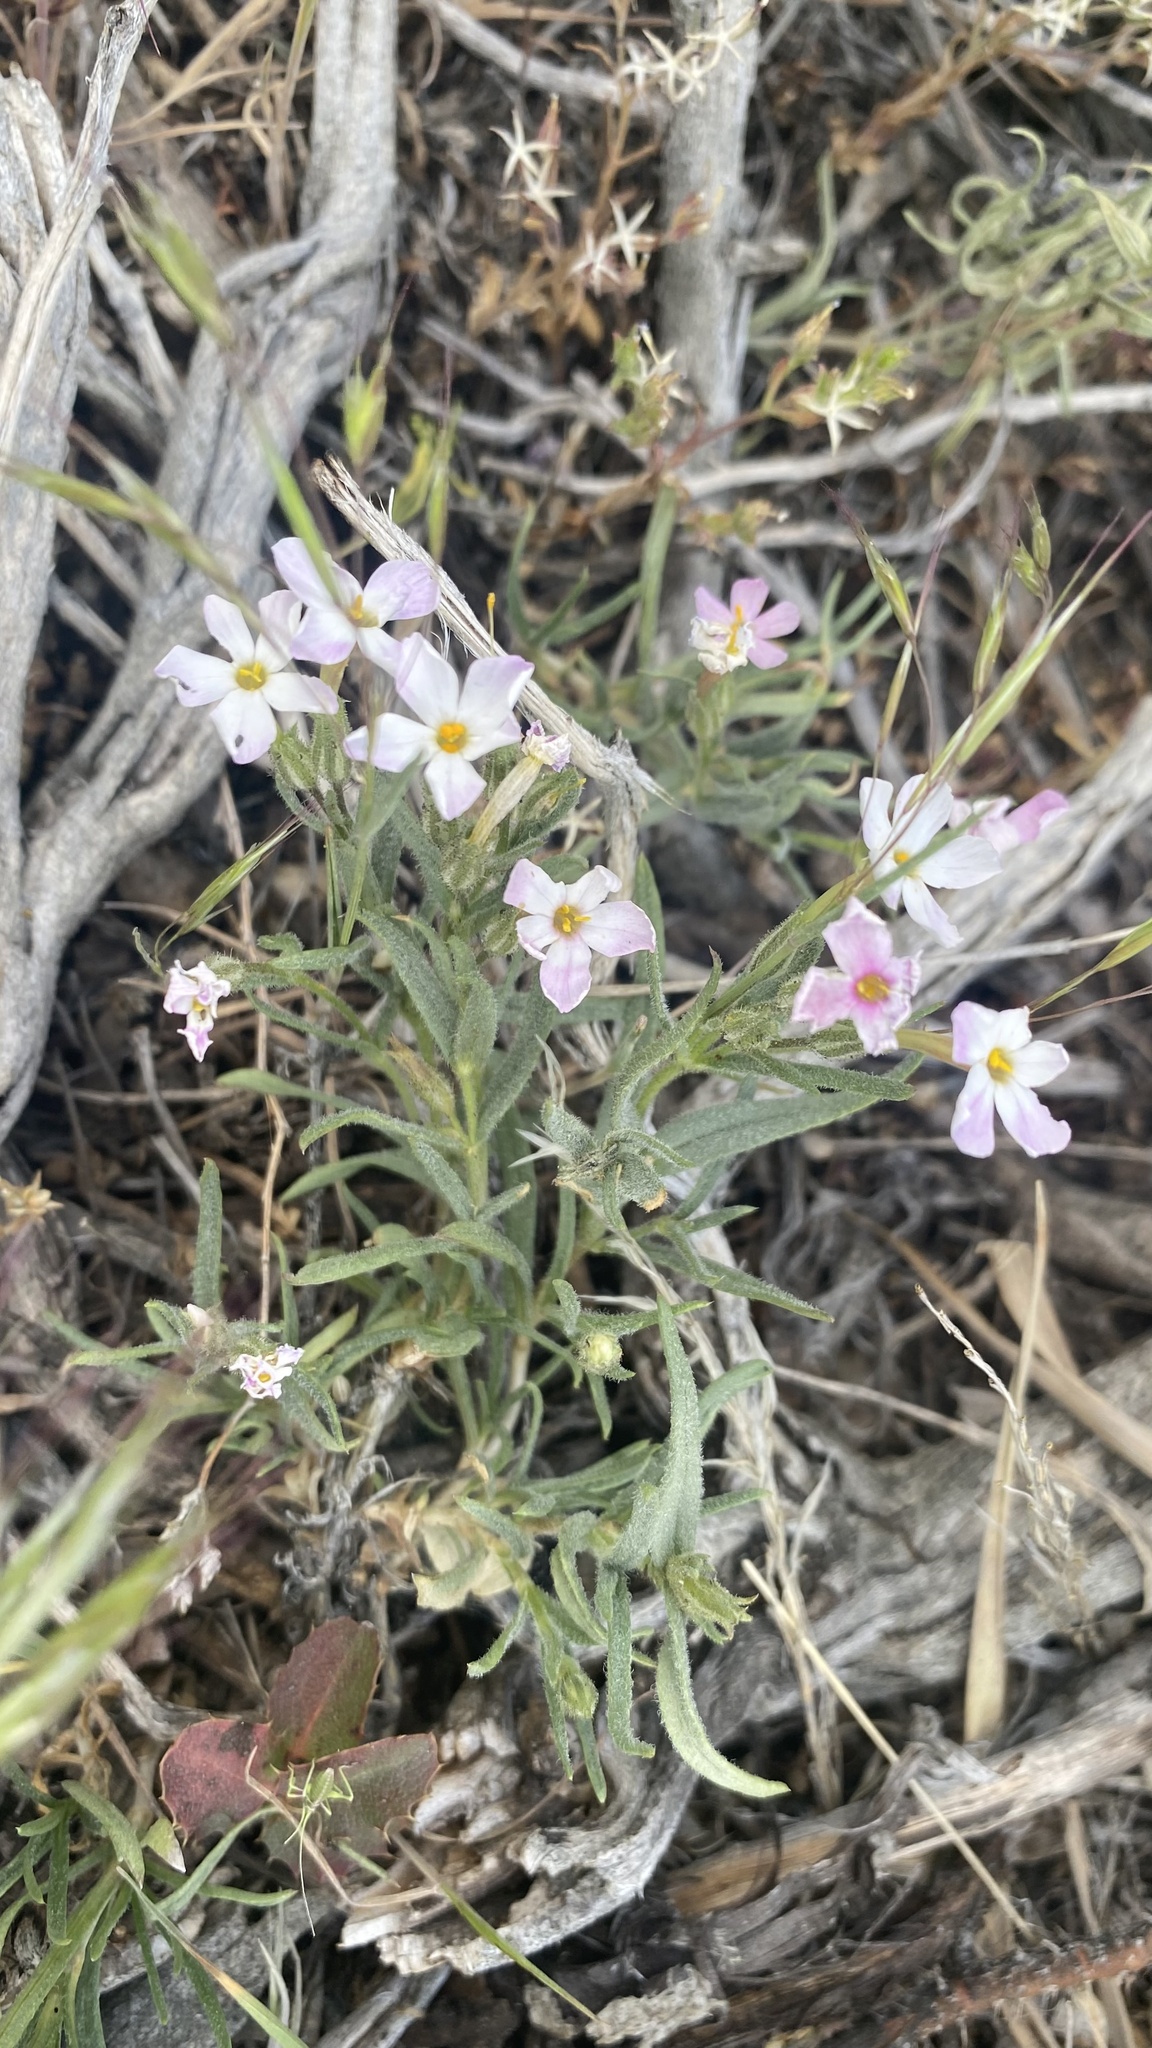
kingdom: Plantae
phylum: Tracheophyta
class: Magnoliopsida
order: Ericales
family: Polemoniaceae
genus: Phlox
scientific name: Phlox longifolia
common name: Longleaf phlox
